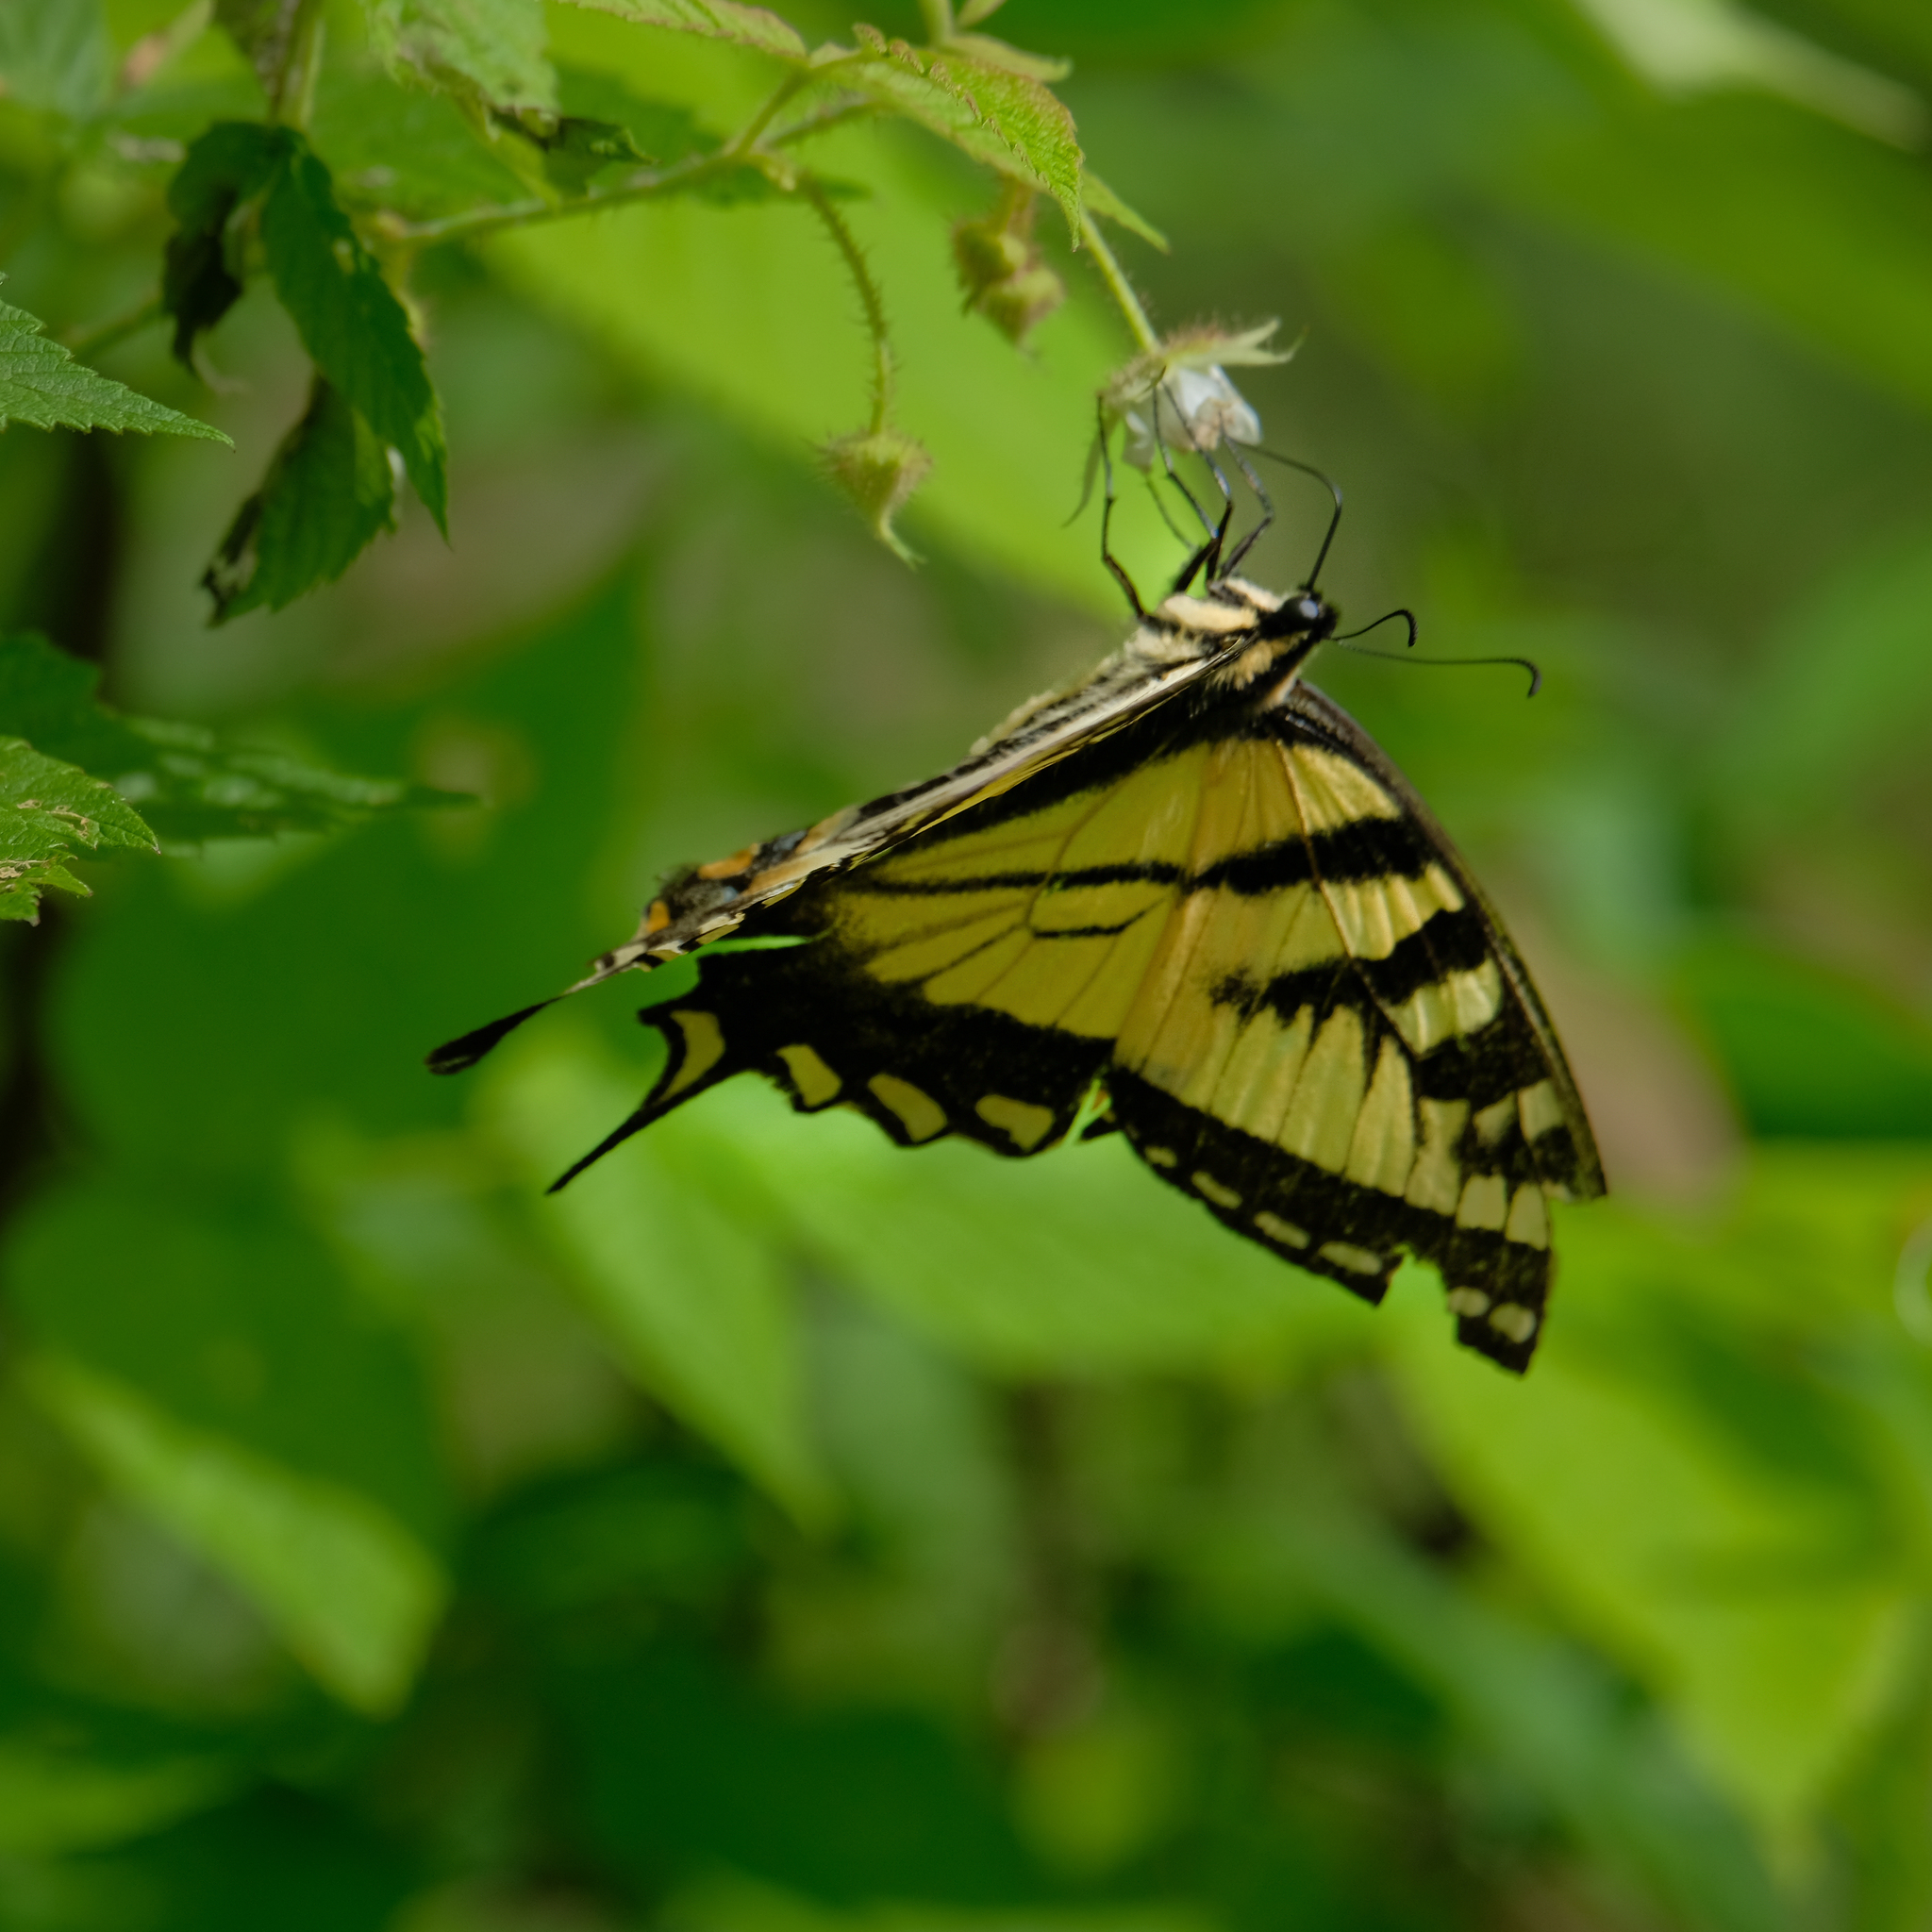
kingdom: Animalia
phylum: Arthropoda
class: Insecta
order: Lepidoptera
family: Papilionidae
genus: Papilio
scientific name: Papilio canadensis
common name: Canadian tiger swallowtail
